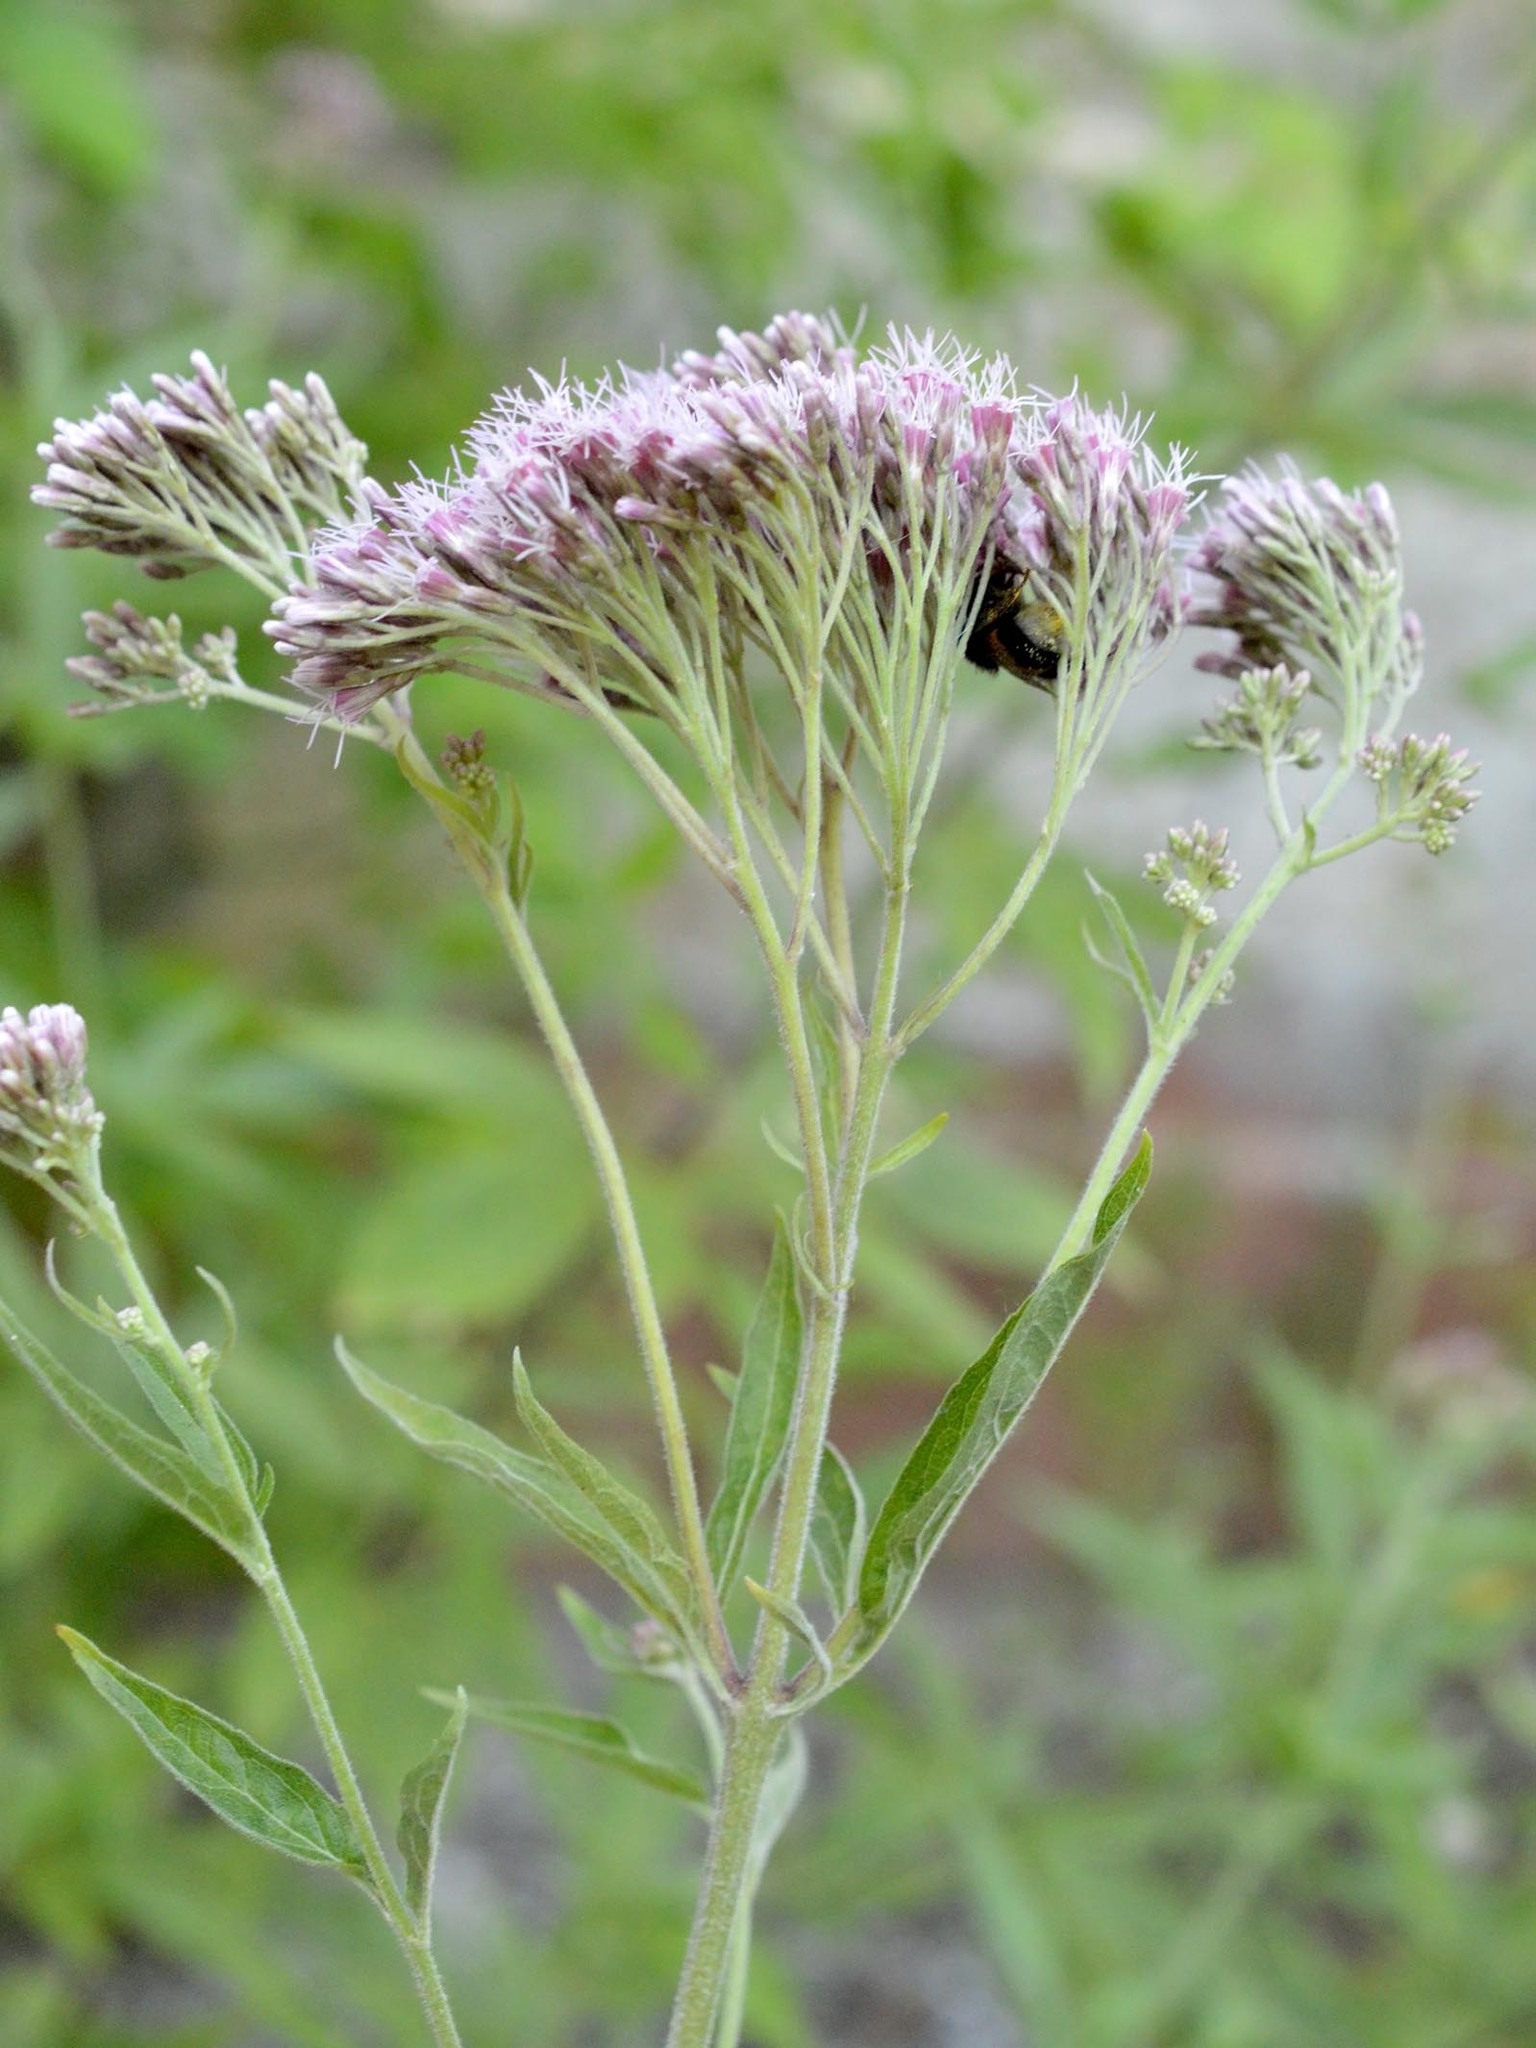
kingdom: Plantae
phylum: Tracheophyta
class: Magnoliopsida
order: Asterales
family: Asteraceae
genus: Eupatorium
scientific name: Eupatorium cannabinum
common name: Hemp-agrimony
